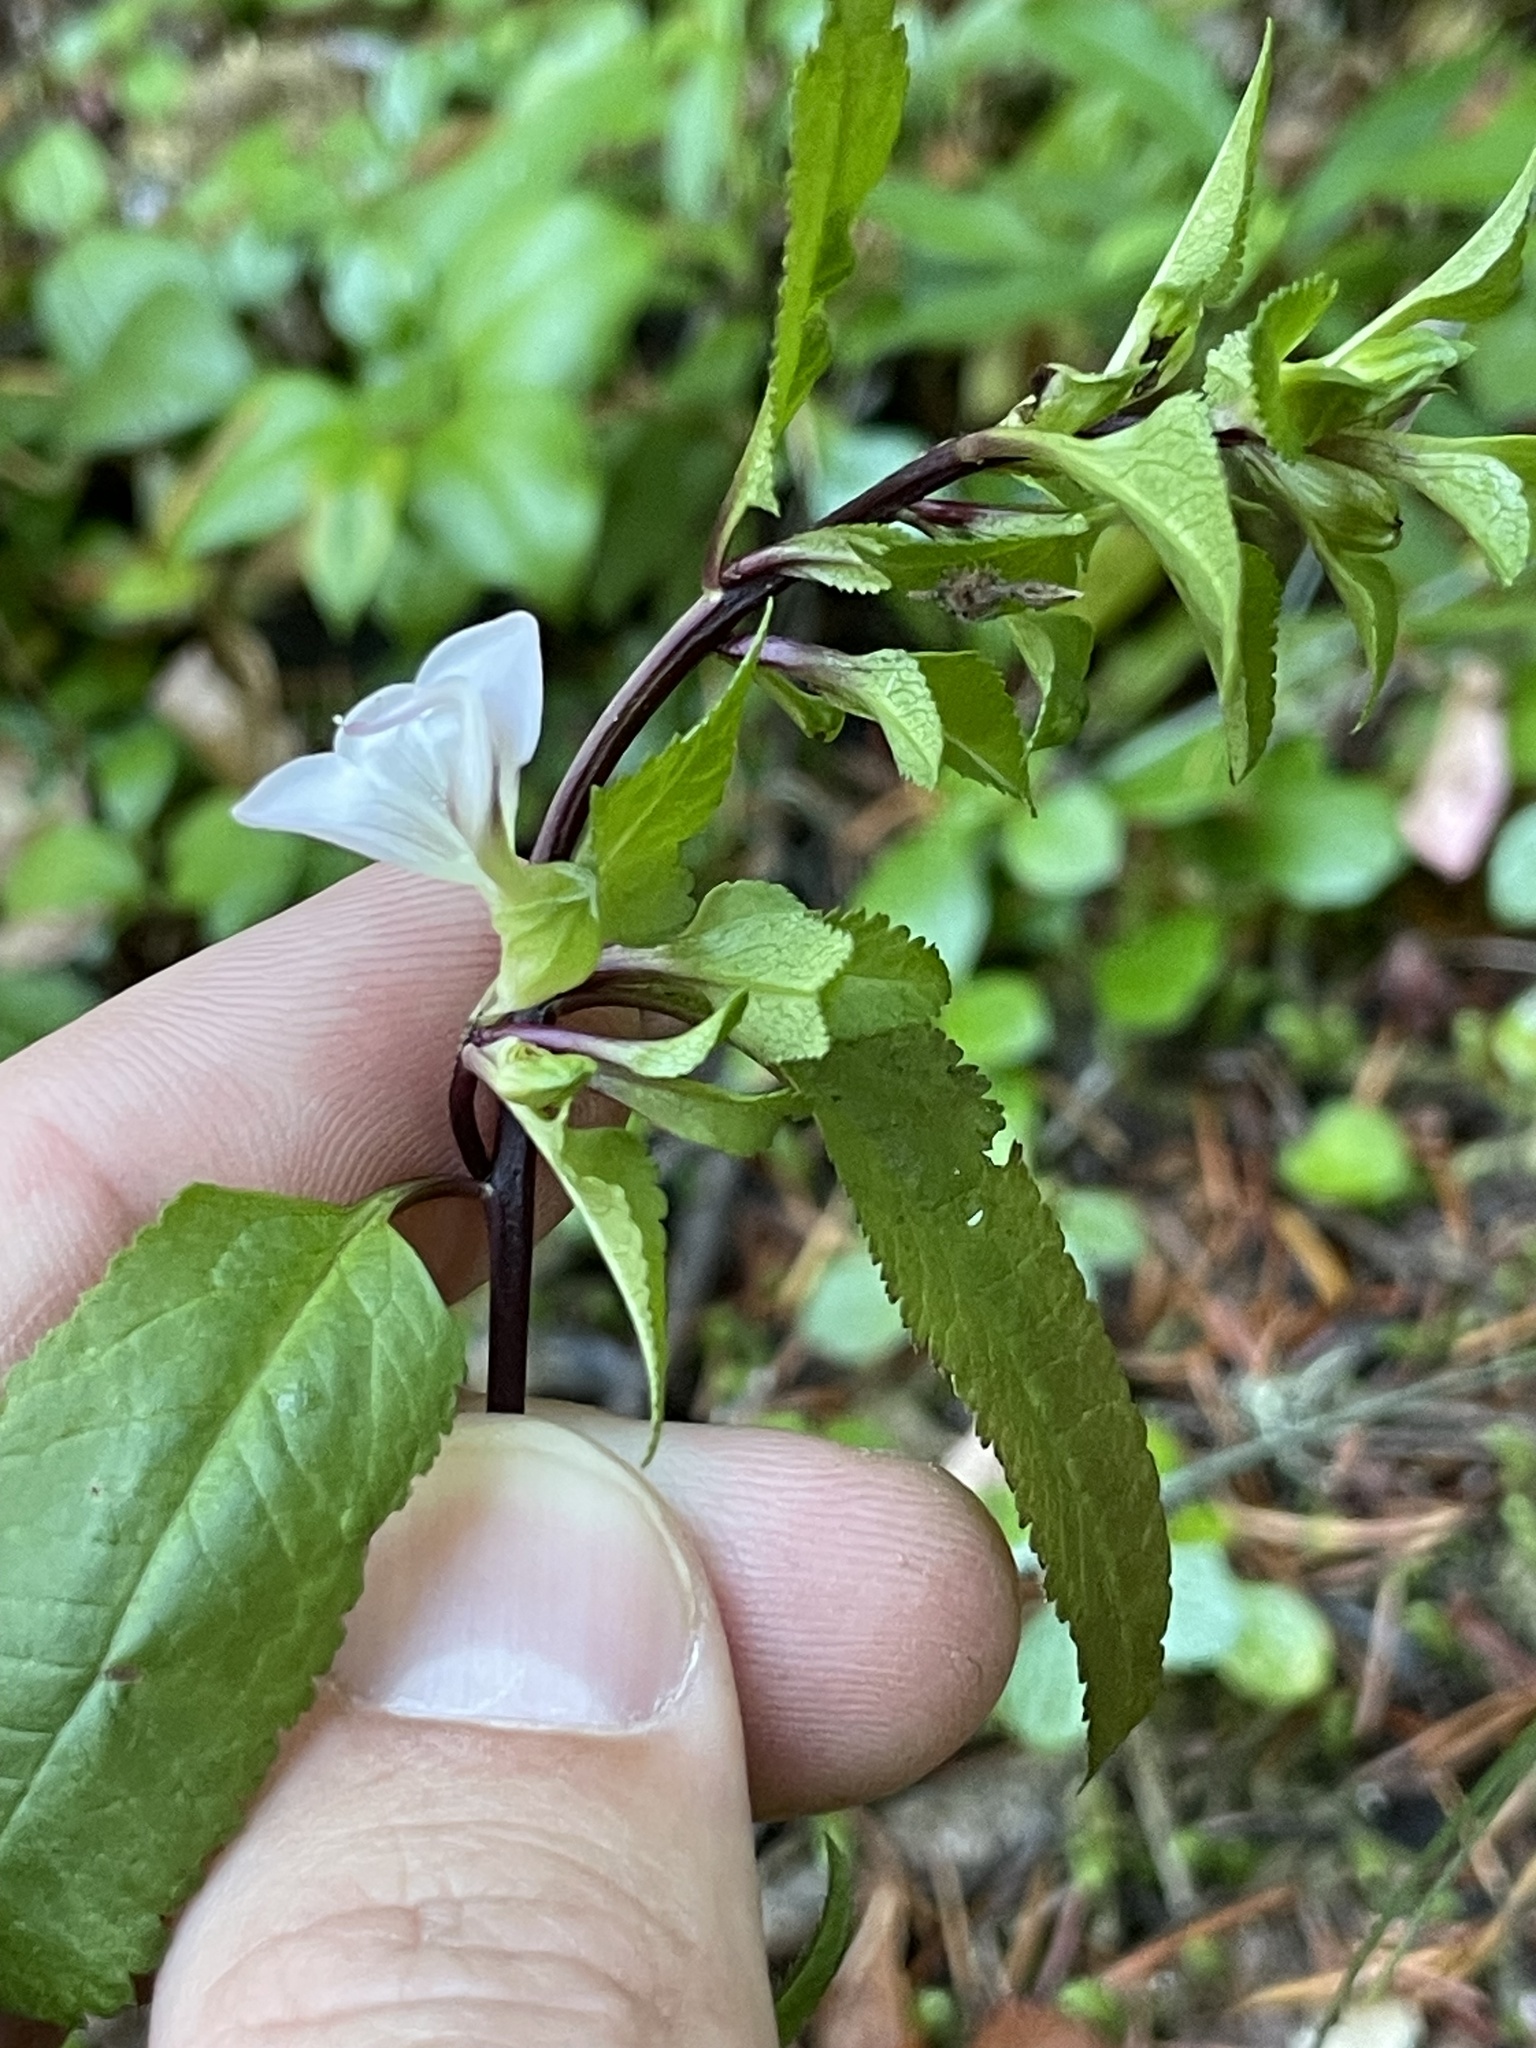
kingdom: Plantae
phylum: Tracheophyta
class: Magnoliopsida
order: Lamiales
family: Orobanchaceae
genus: Pedicularis
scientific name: Pedicularis racemosa
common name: Leafy lousewort
